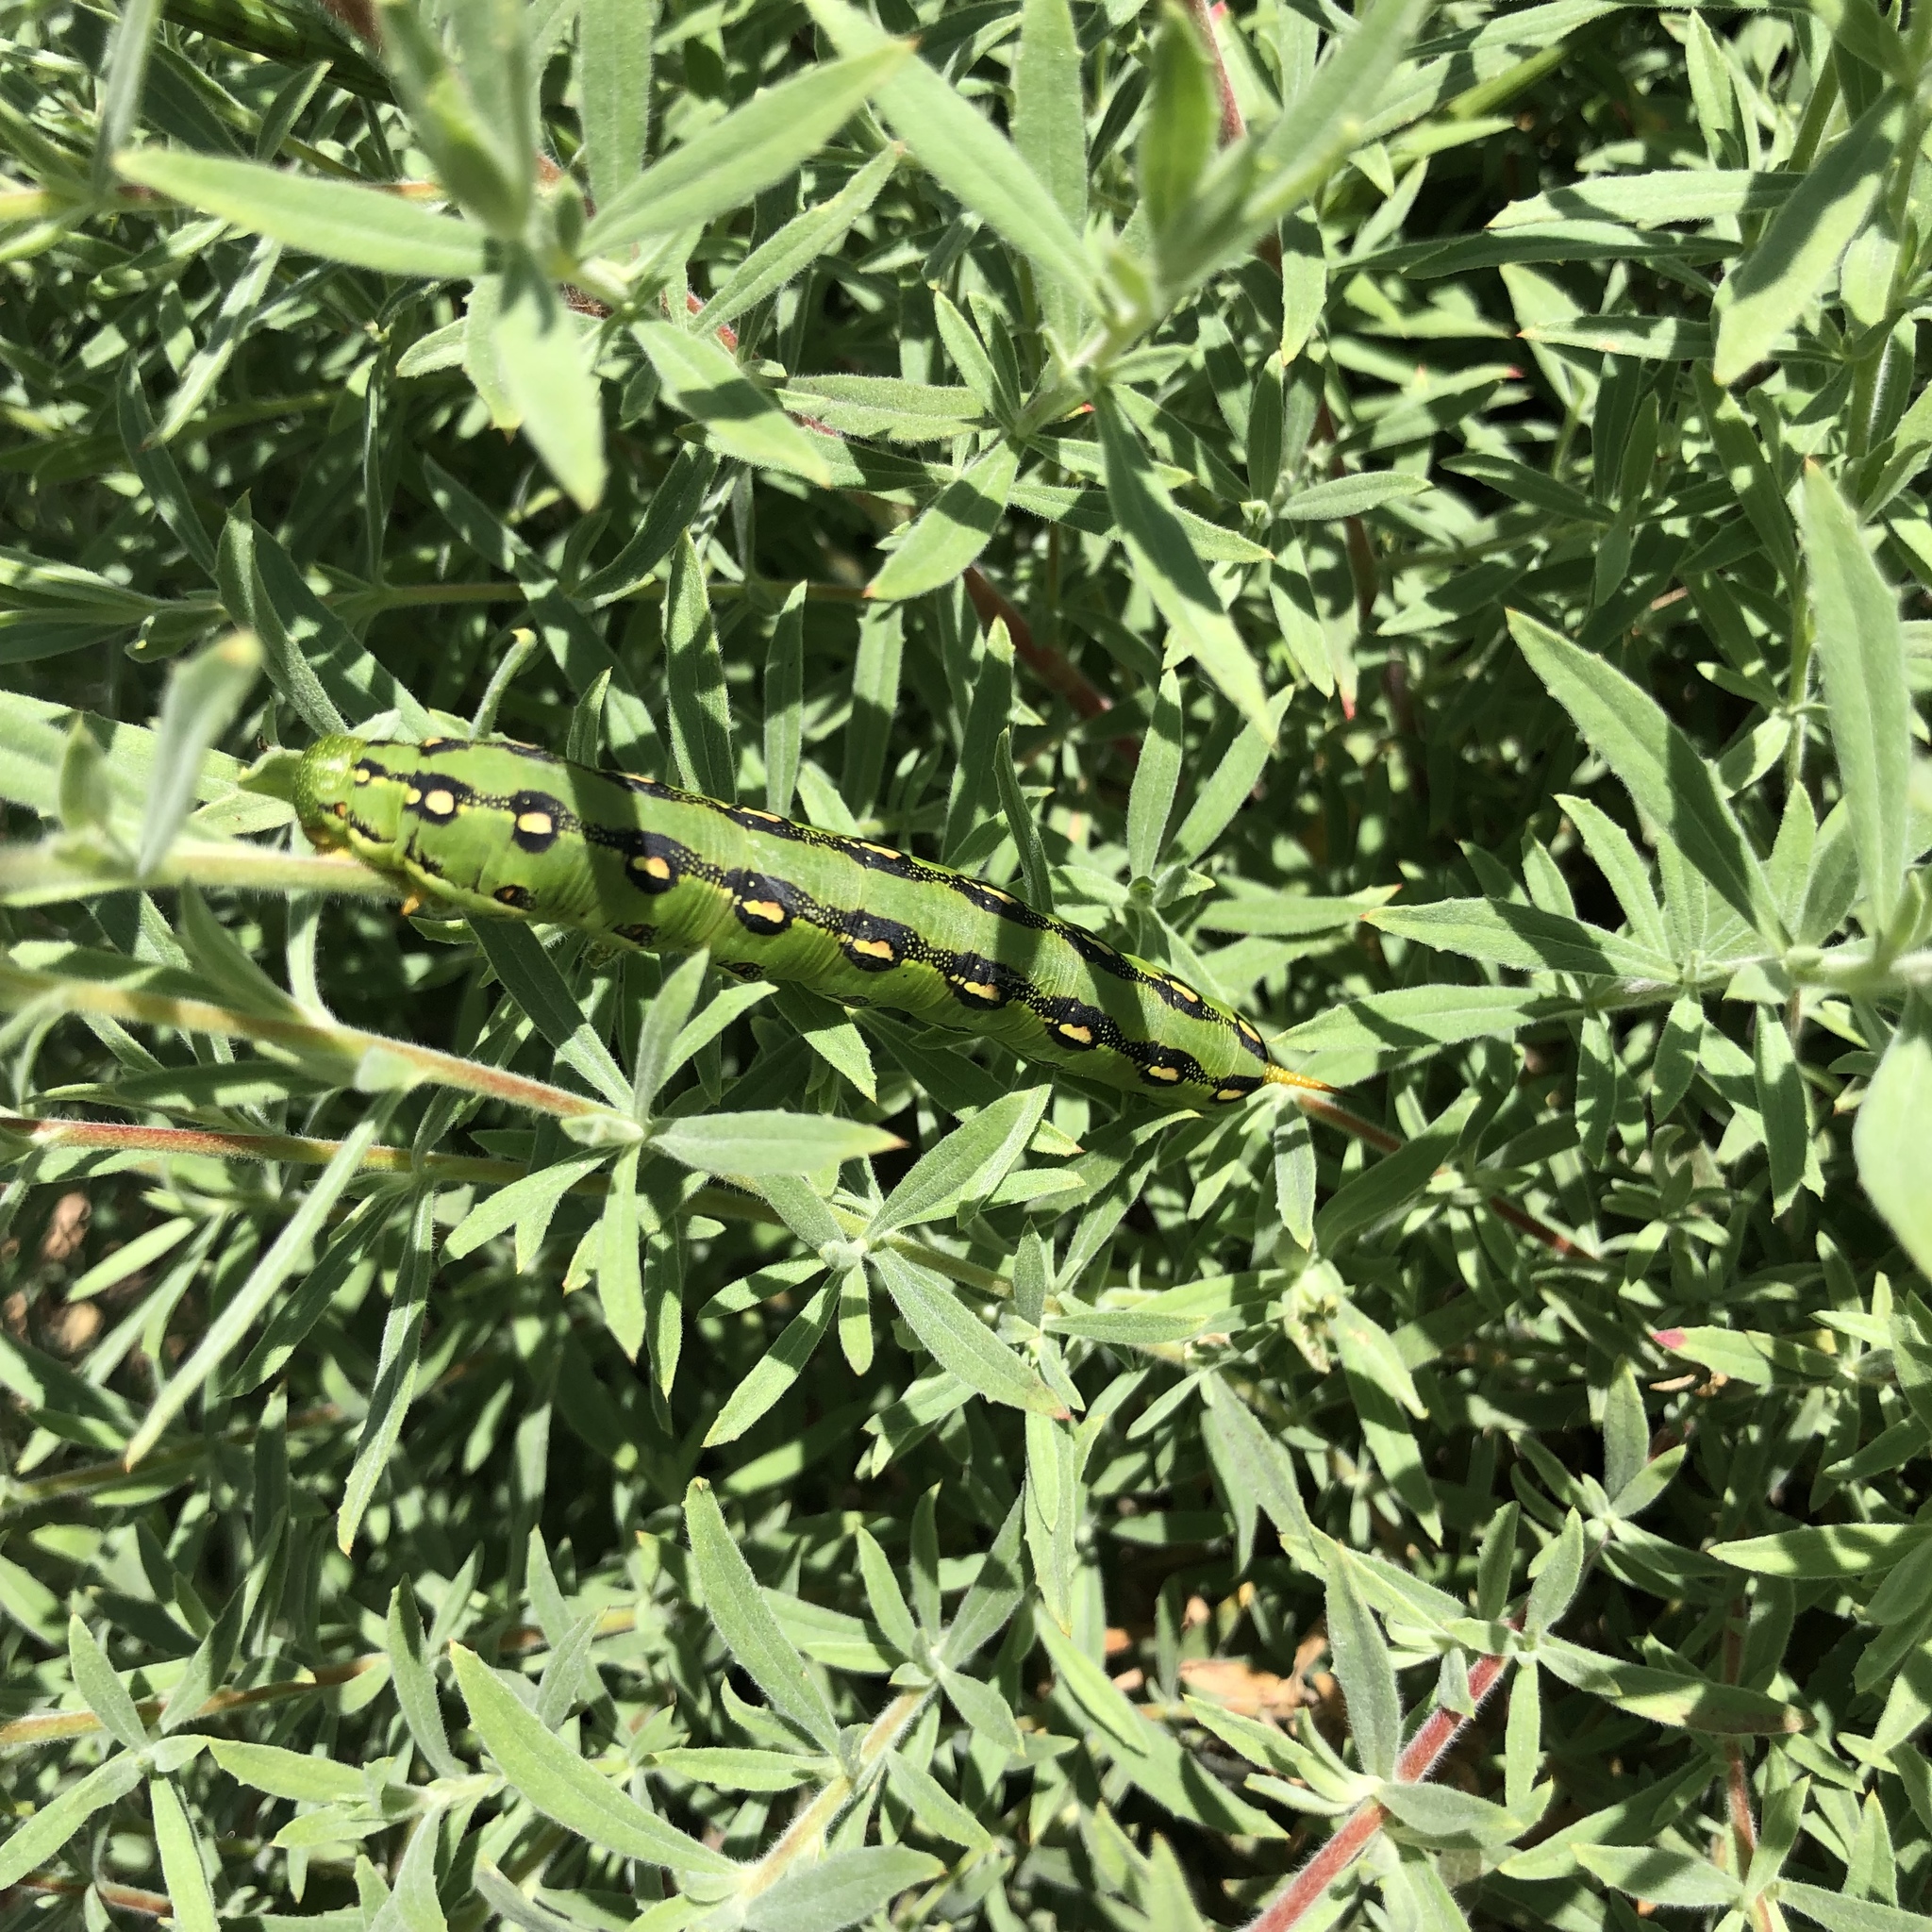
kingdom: Animalia
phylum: Arthropoda
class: Insecta
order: Lepidoptera
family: Sphingidae
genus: Hyles
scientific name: Hyles lineata
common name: White-lined sphinx
